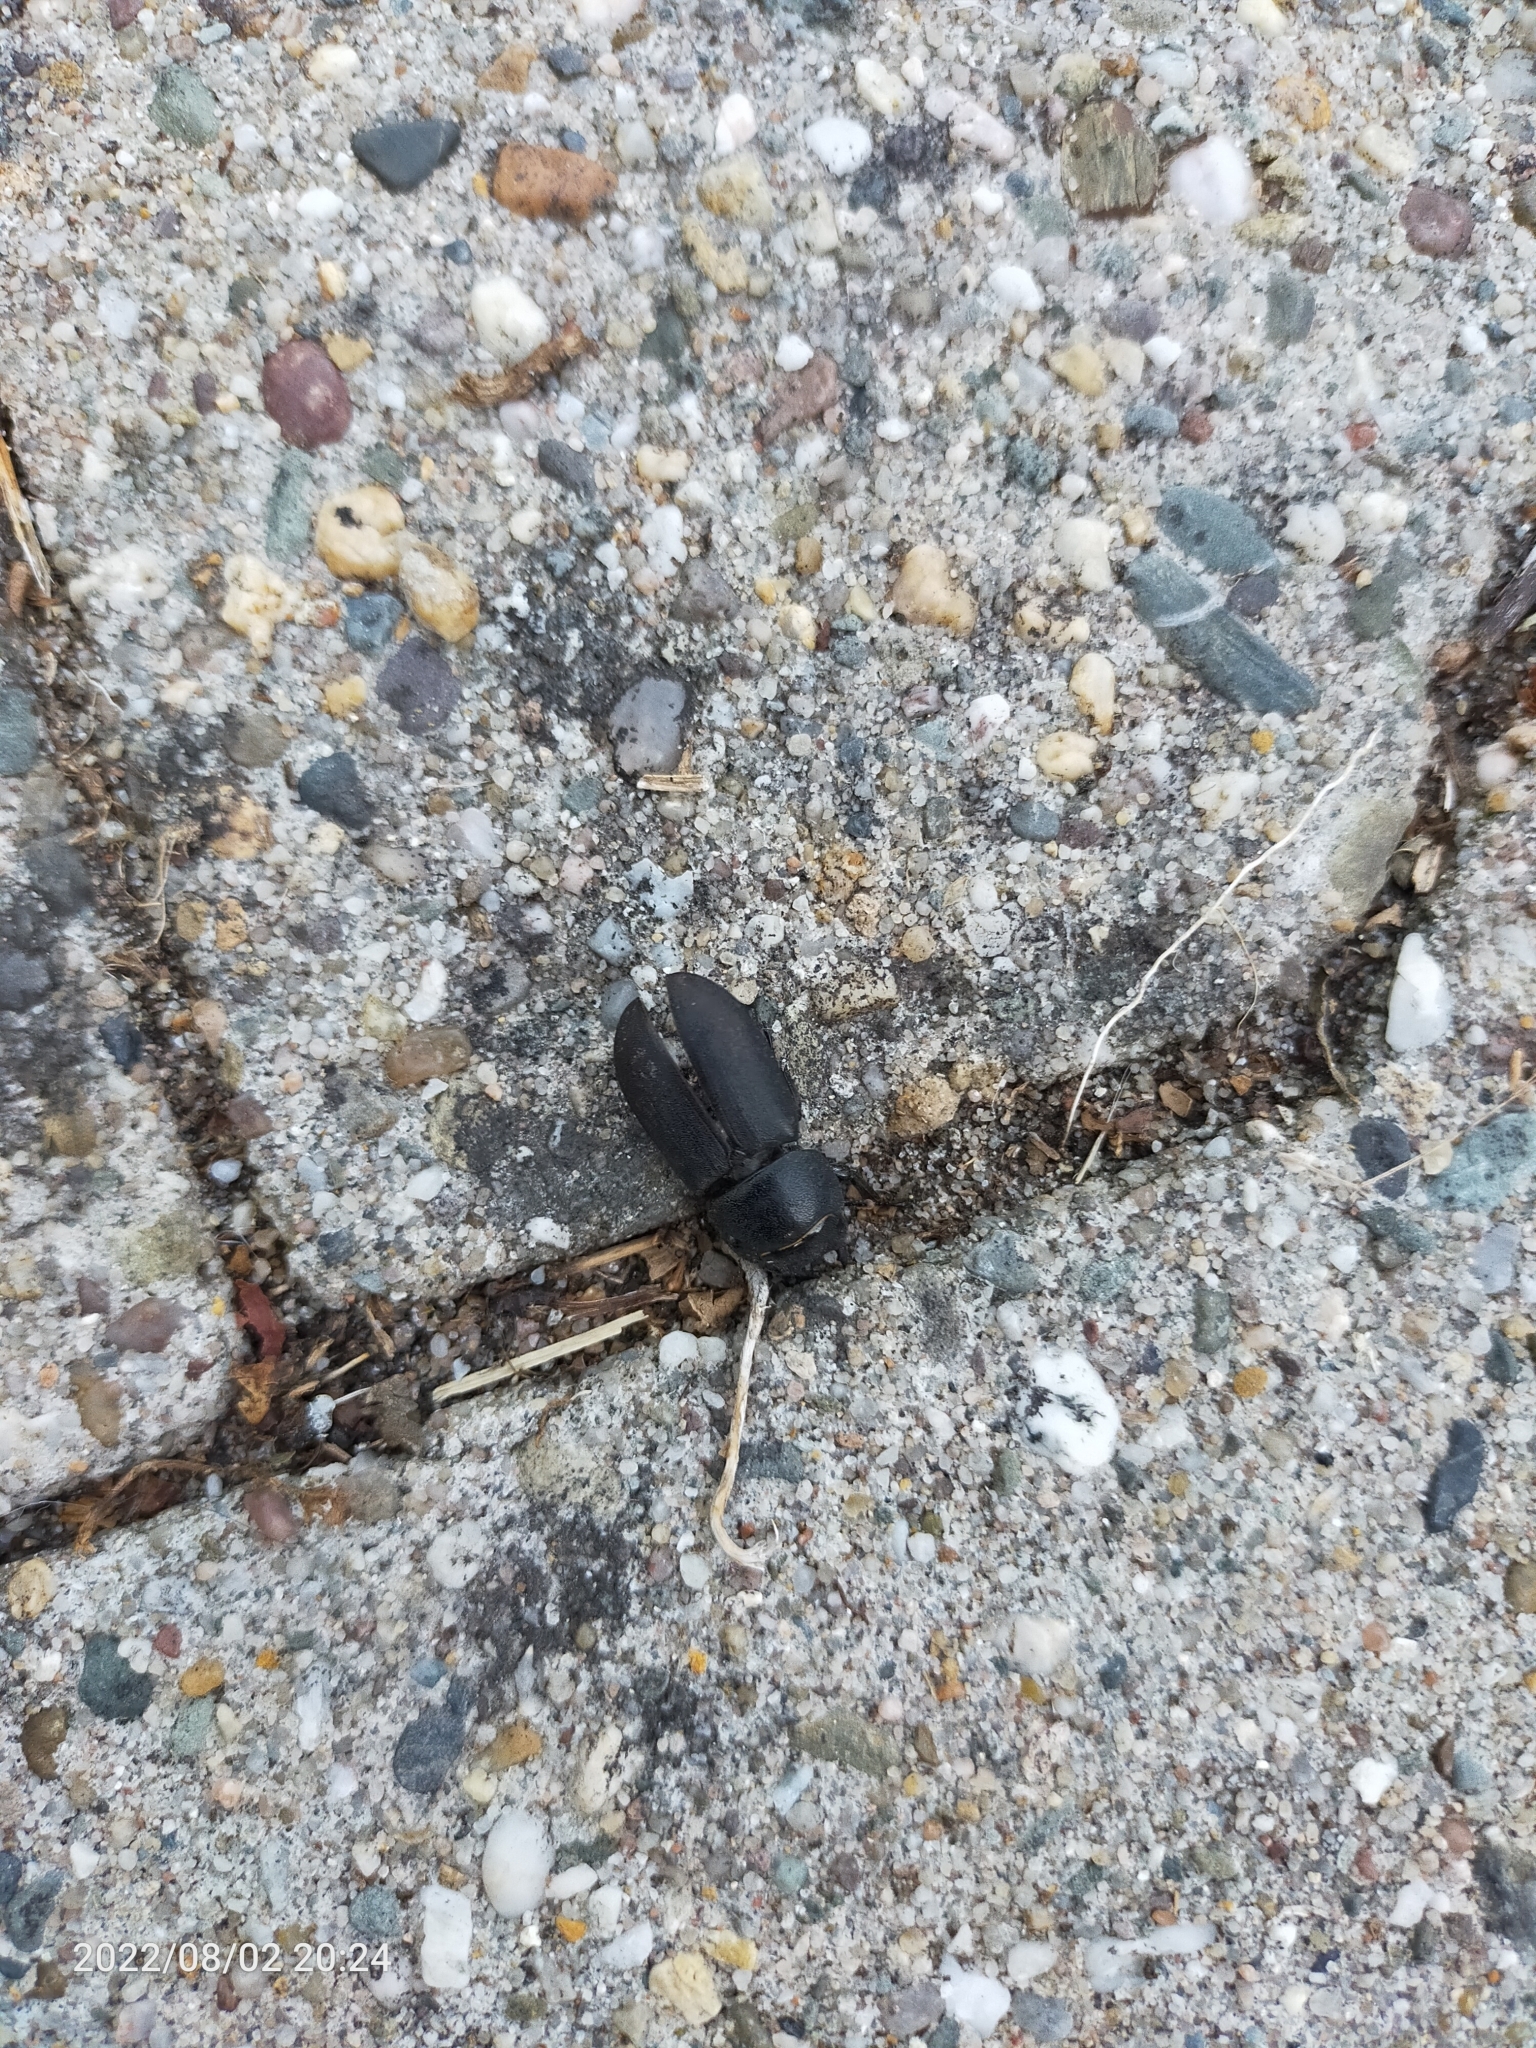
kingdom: Animalia
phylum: Arthropoda
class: Insecta
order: Coleoptera
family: Lucanidae
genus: Dorcus
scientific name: Dorcus parallelipipedus
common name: Lesser stag beetle
